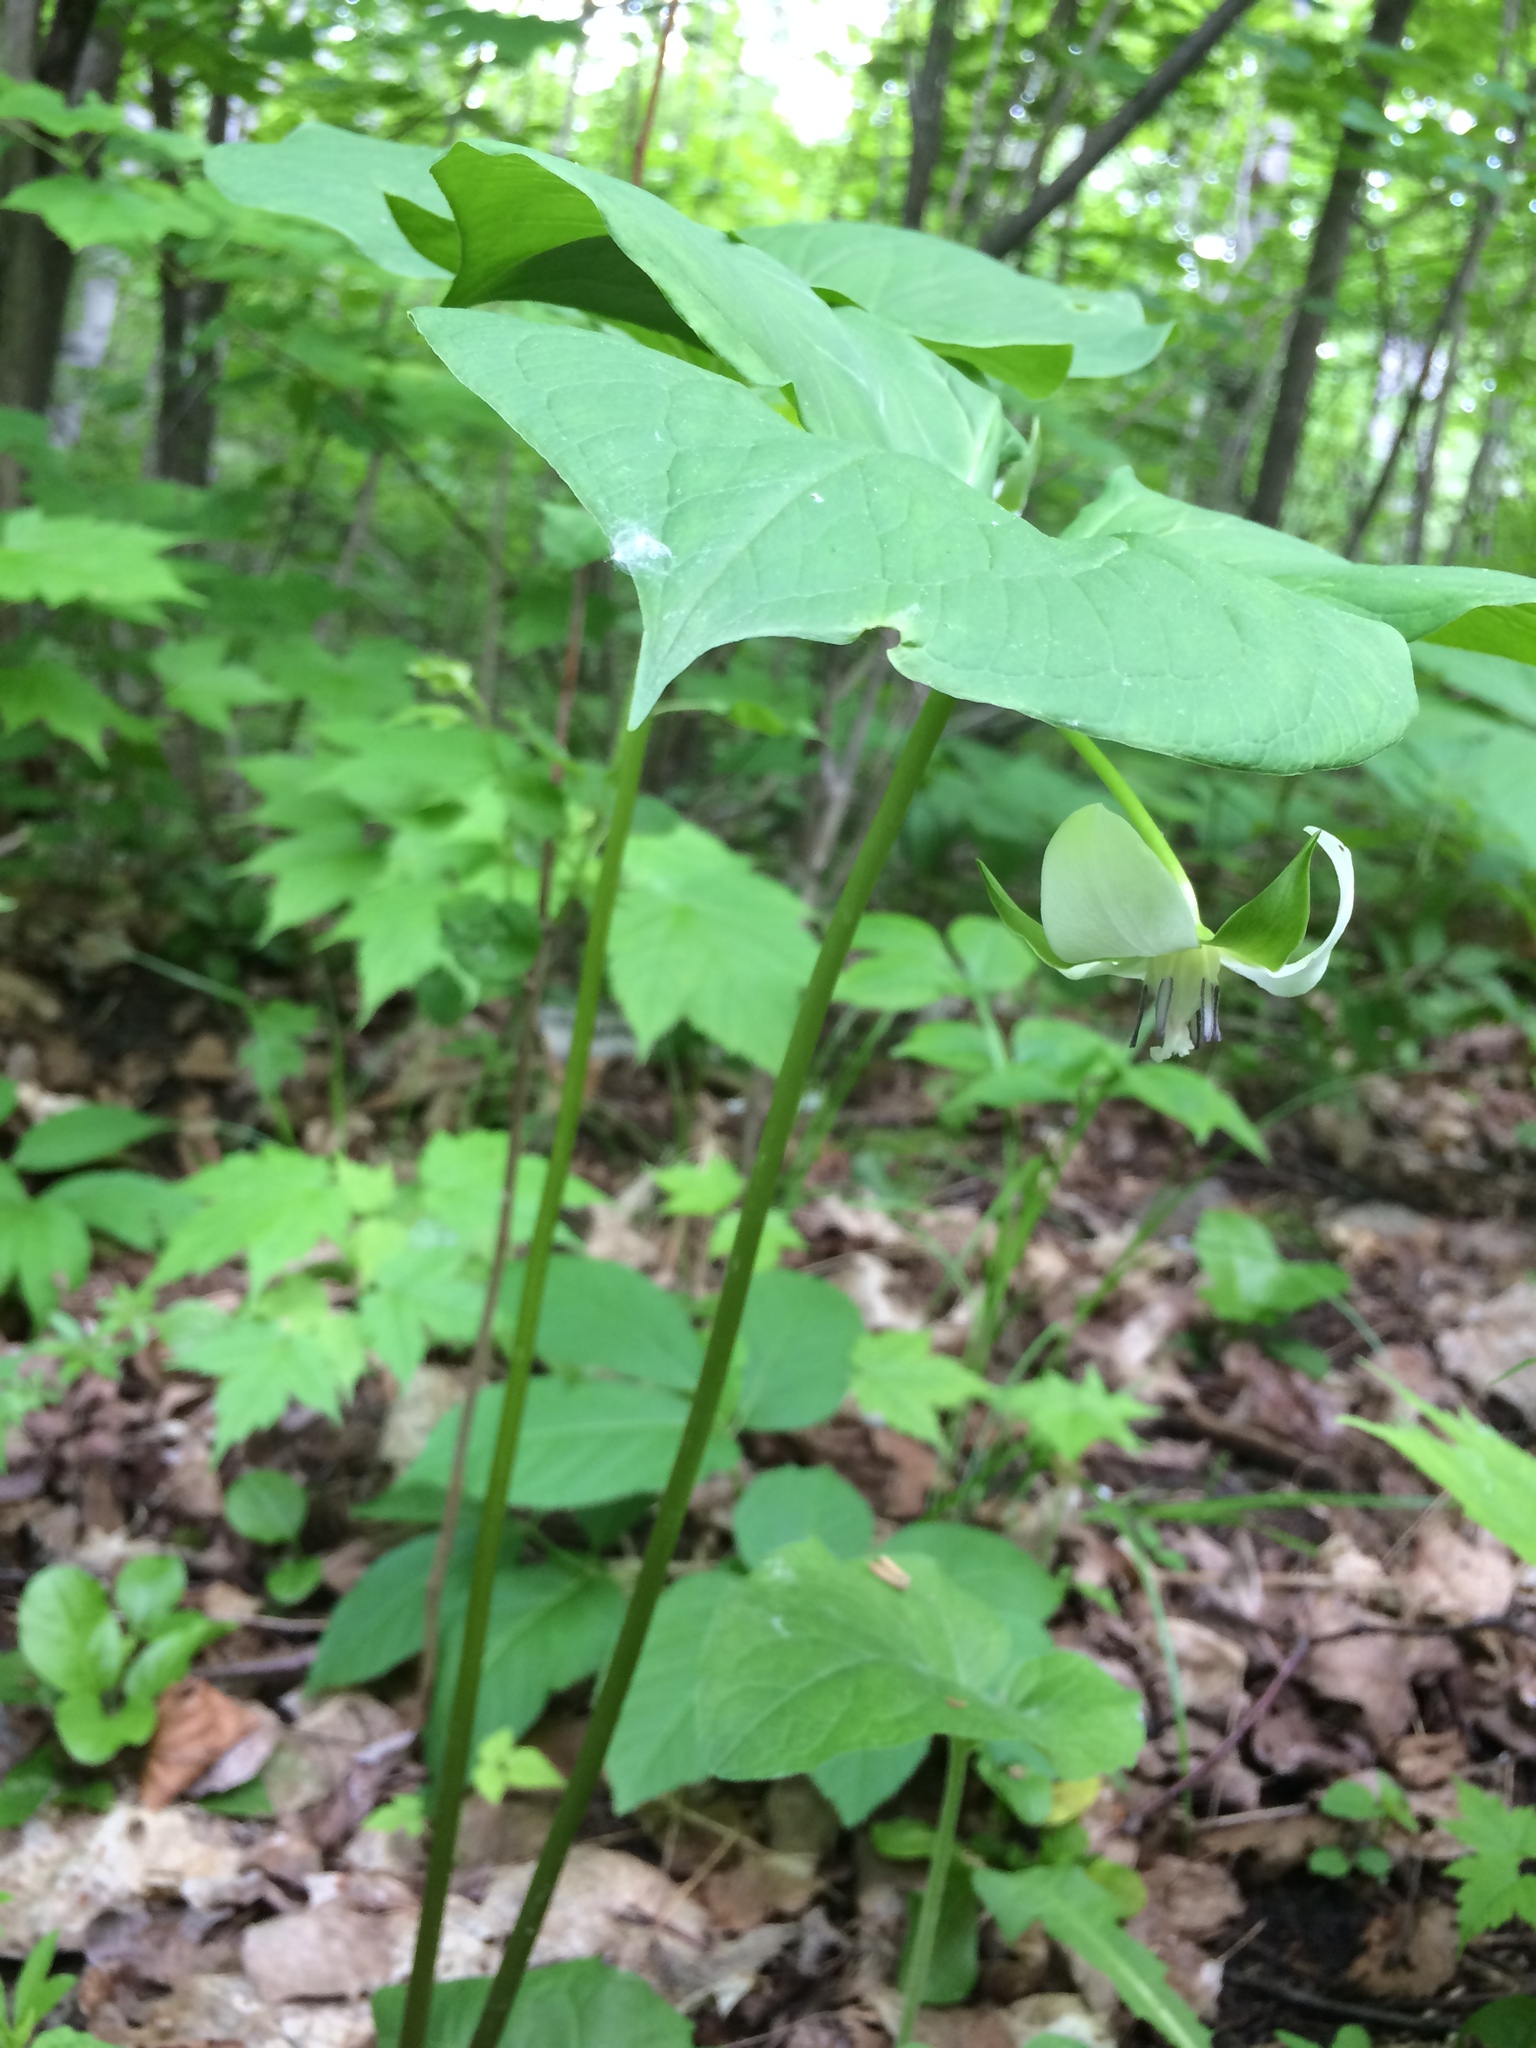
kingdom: Plantae
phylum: Tracheophyta
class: Liliopsida
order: Liliales
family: Melanthiaceae
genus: Trillium
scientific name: Trillium cernuum
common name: Nodding trillium
